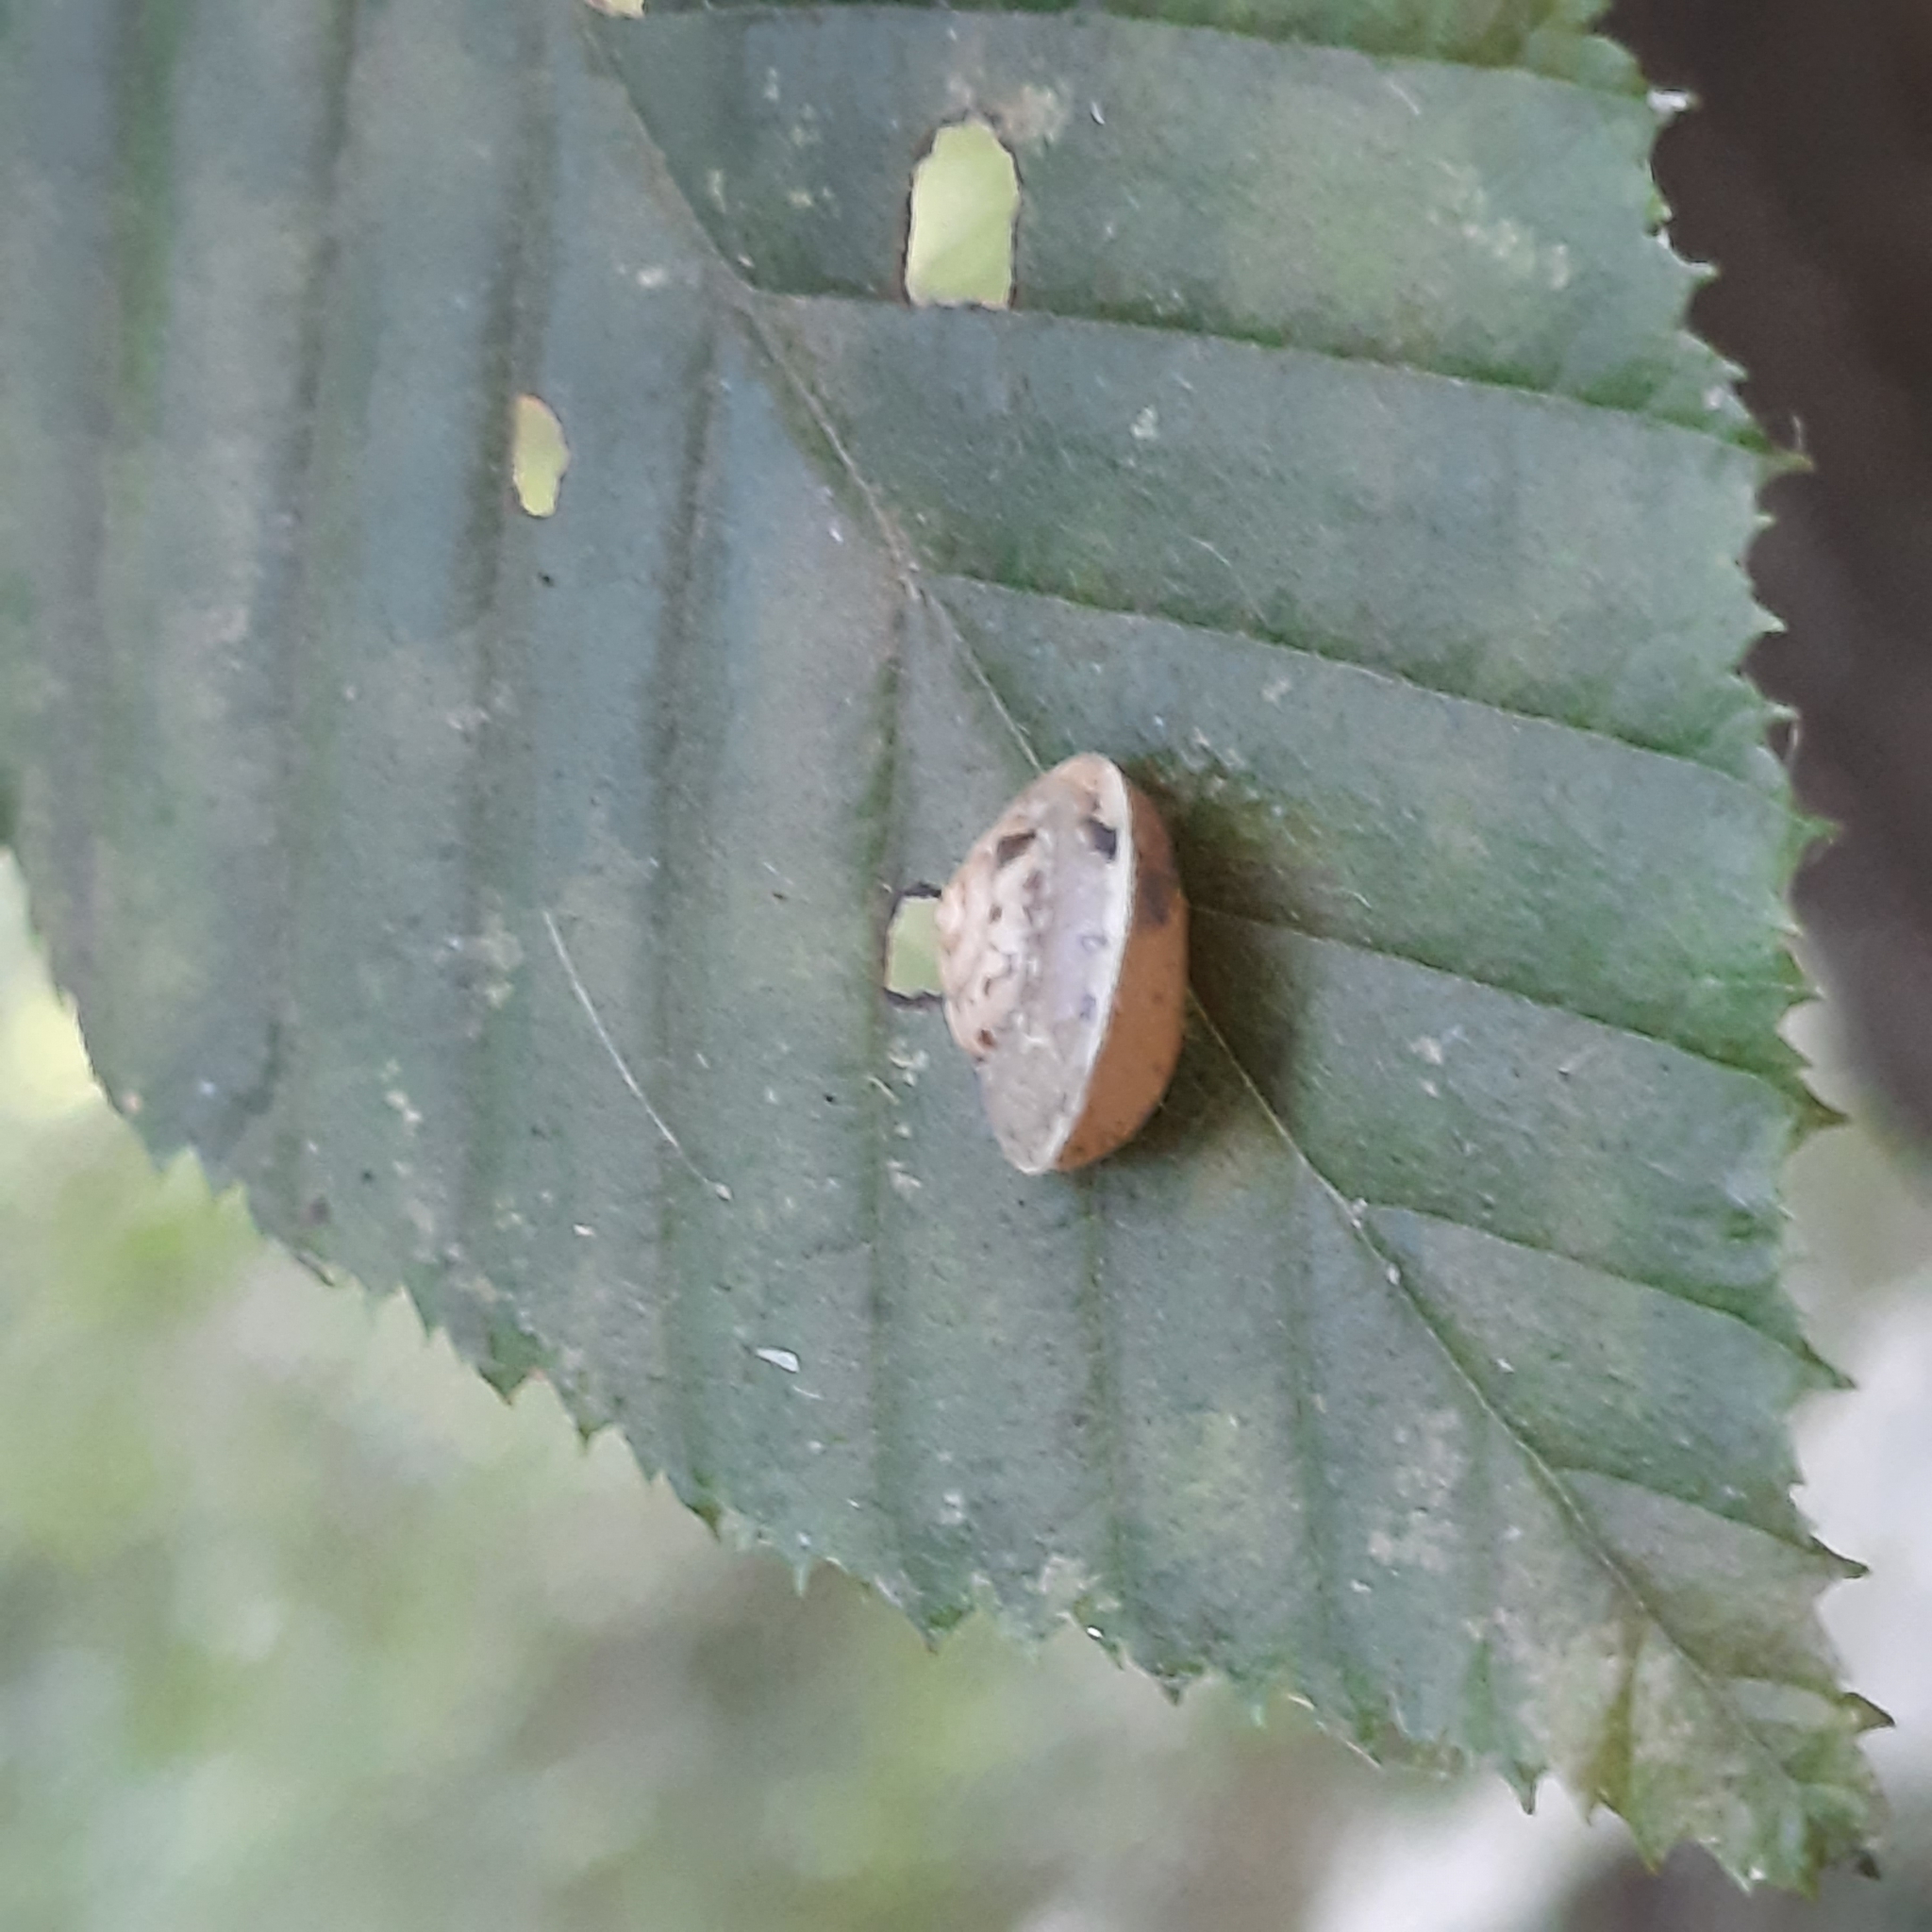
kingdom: Animalia
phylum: Mollusca
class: Gastropoda
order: Stylommatophora
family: Hygromiidae
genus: Hygromia
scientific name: Hygromia cinctella
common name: Girdled snail
